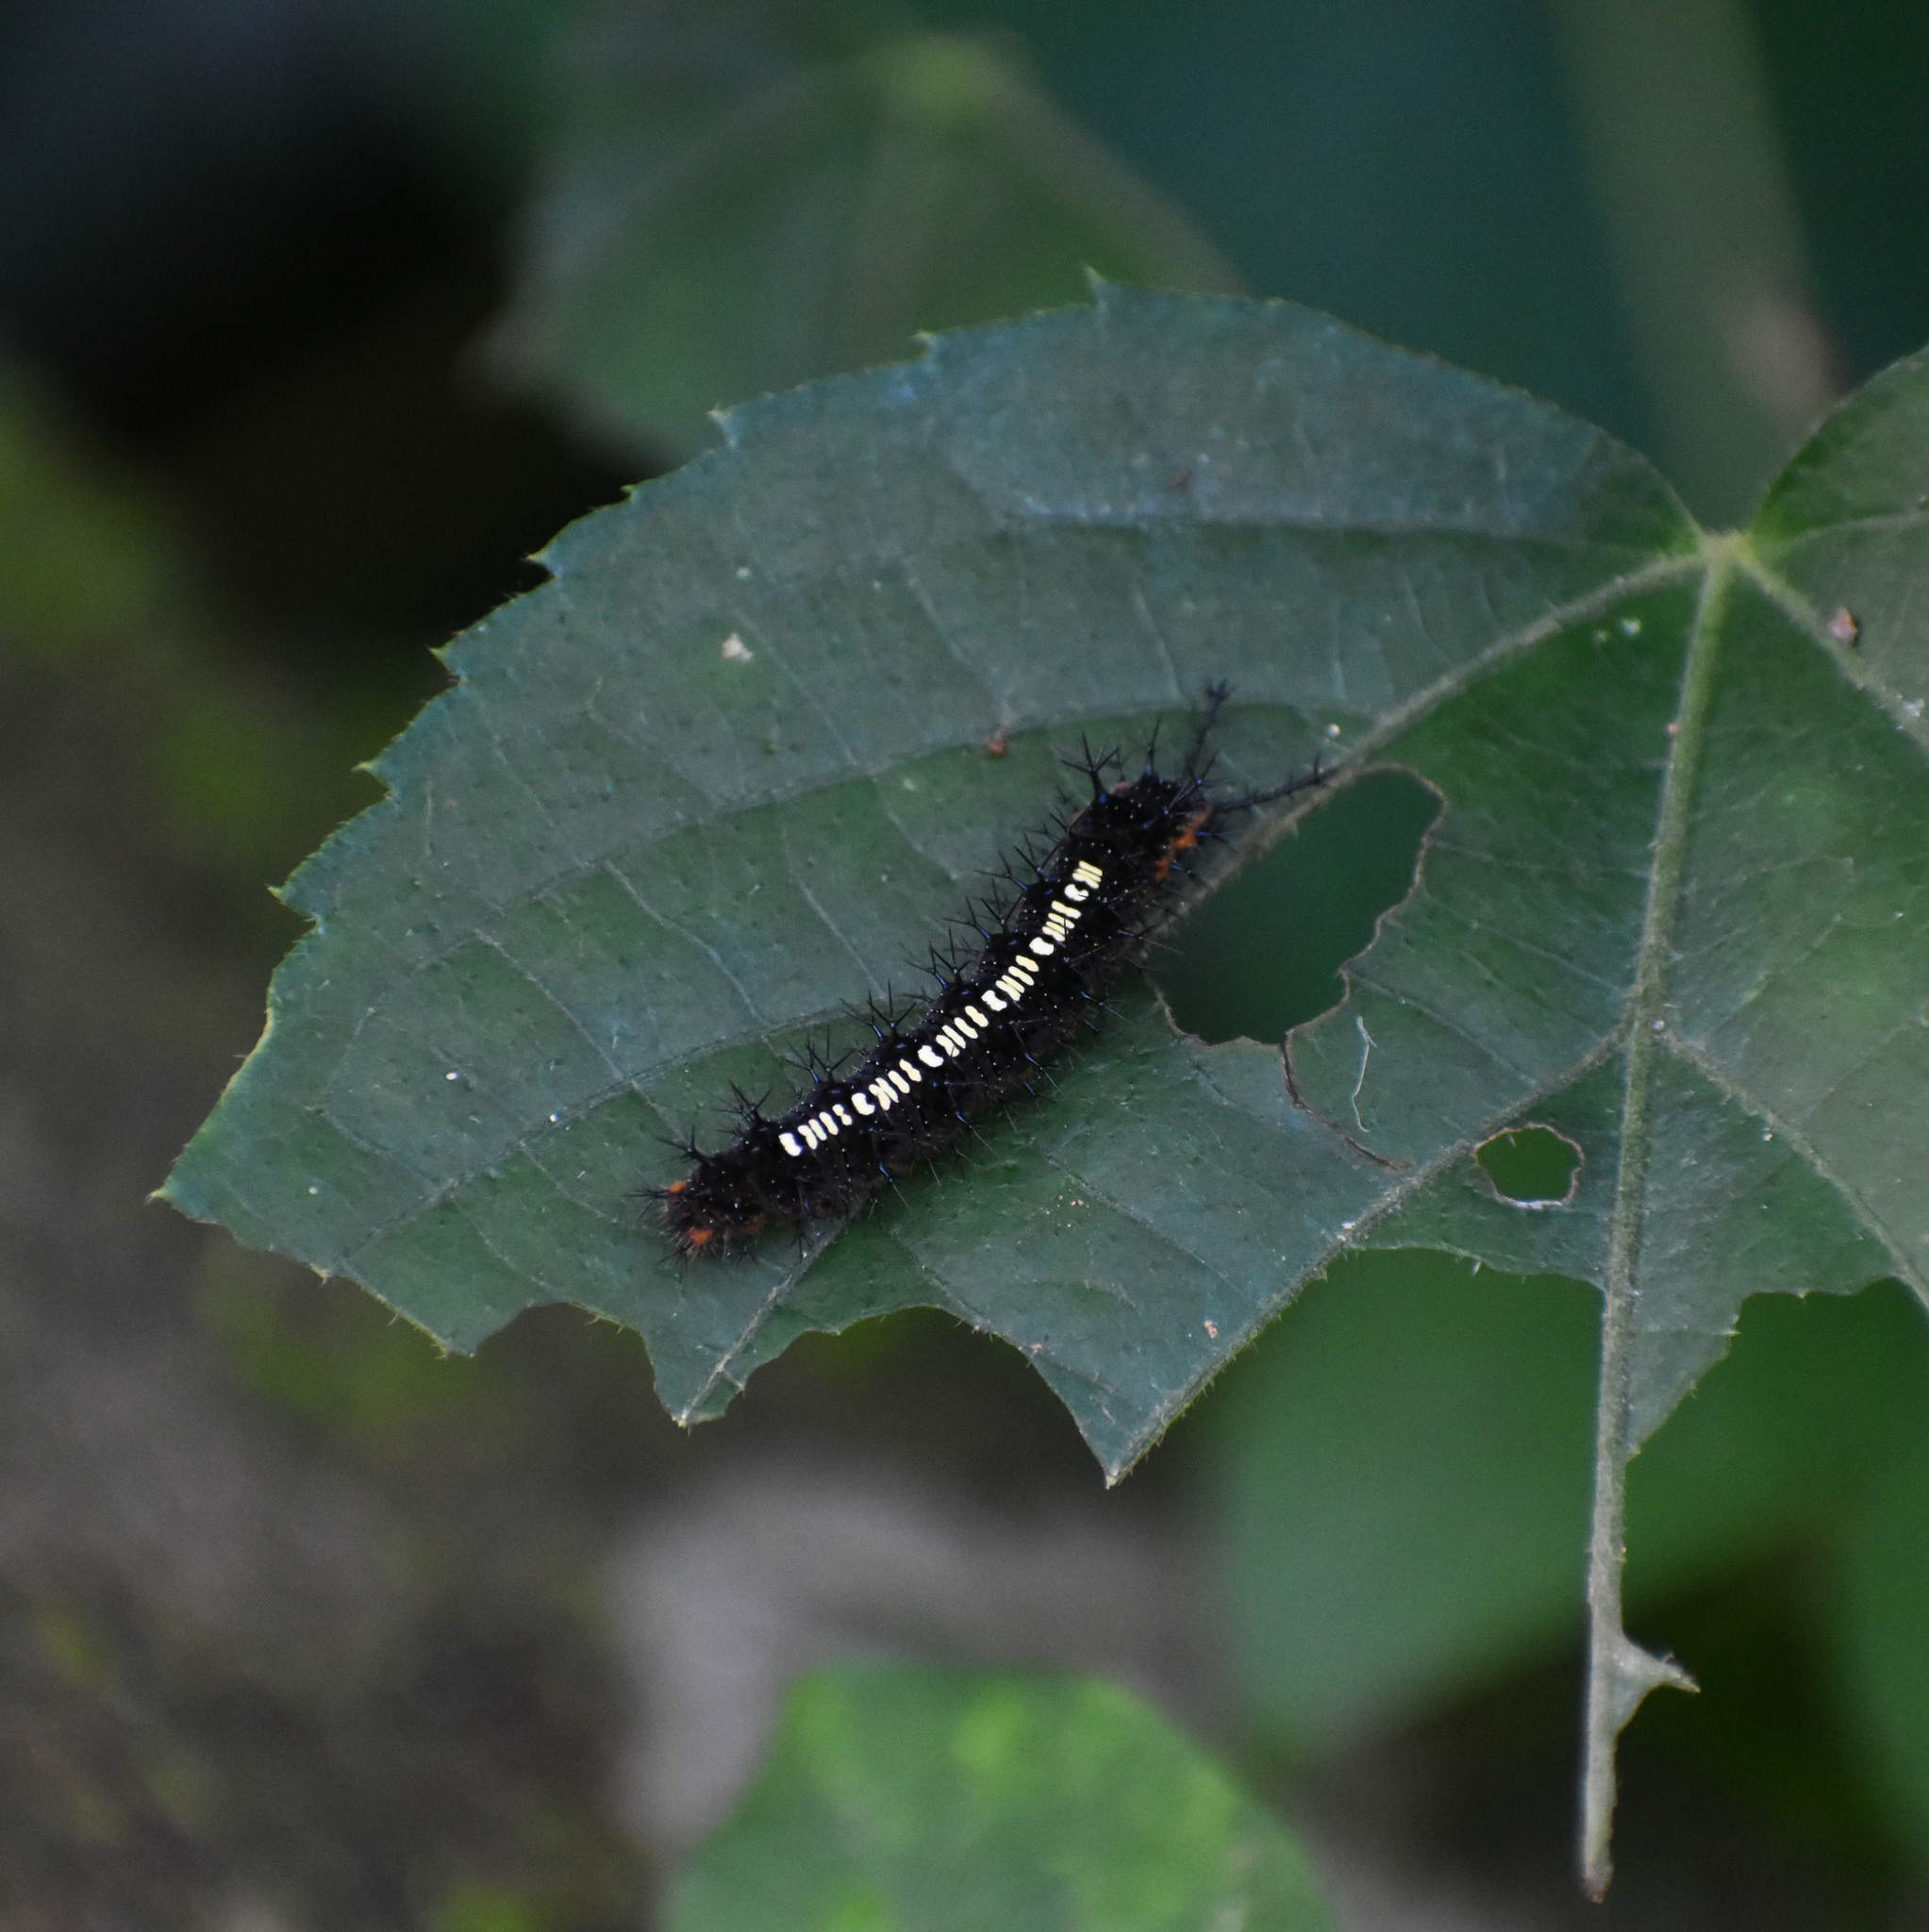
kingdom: Animalia
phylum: Arthropoda
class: Insecta
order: Lepidoptera
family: Nymphalidae
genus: Ariadne
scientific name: Ariadne ariadne
